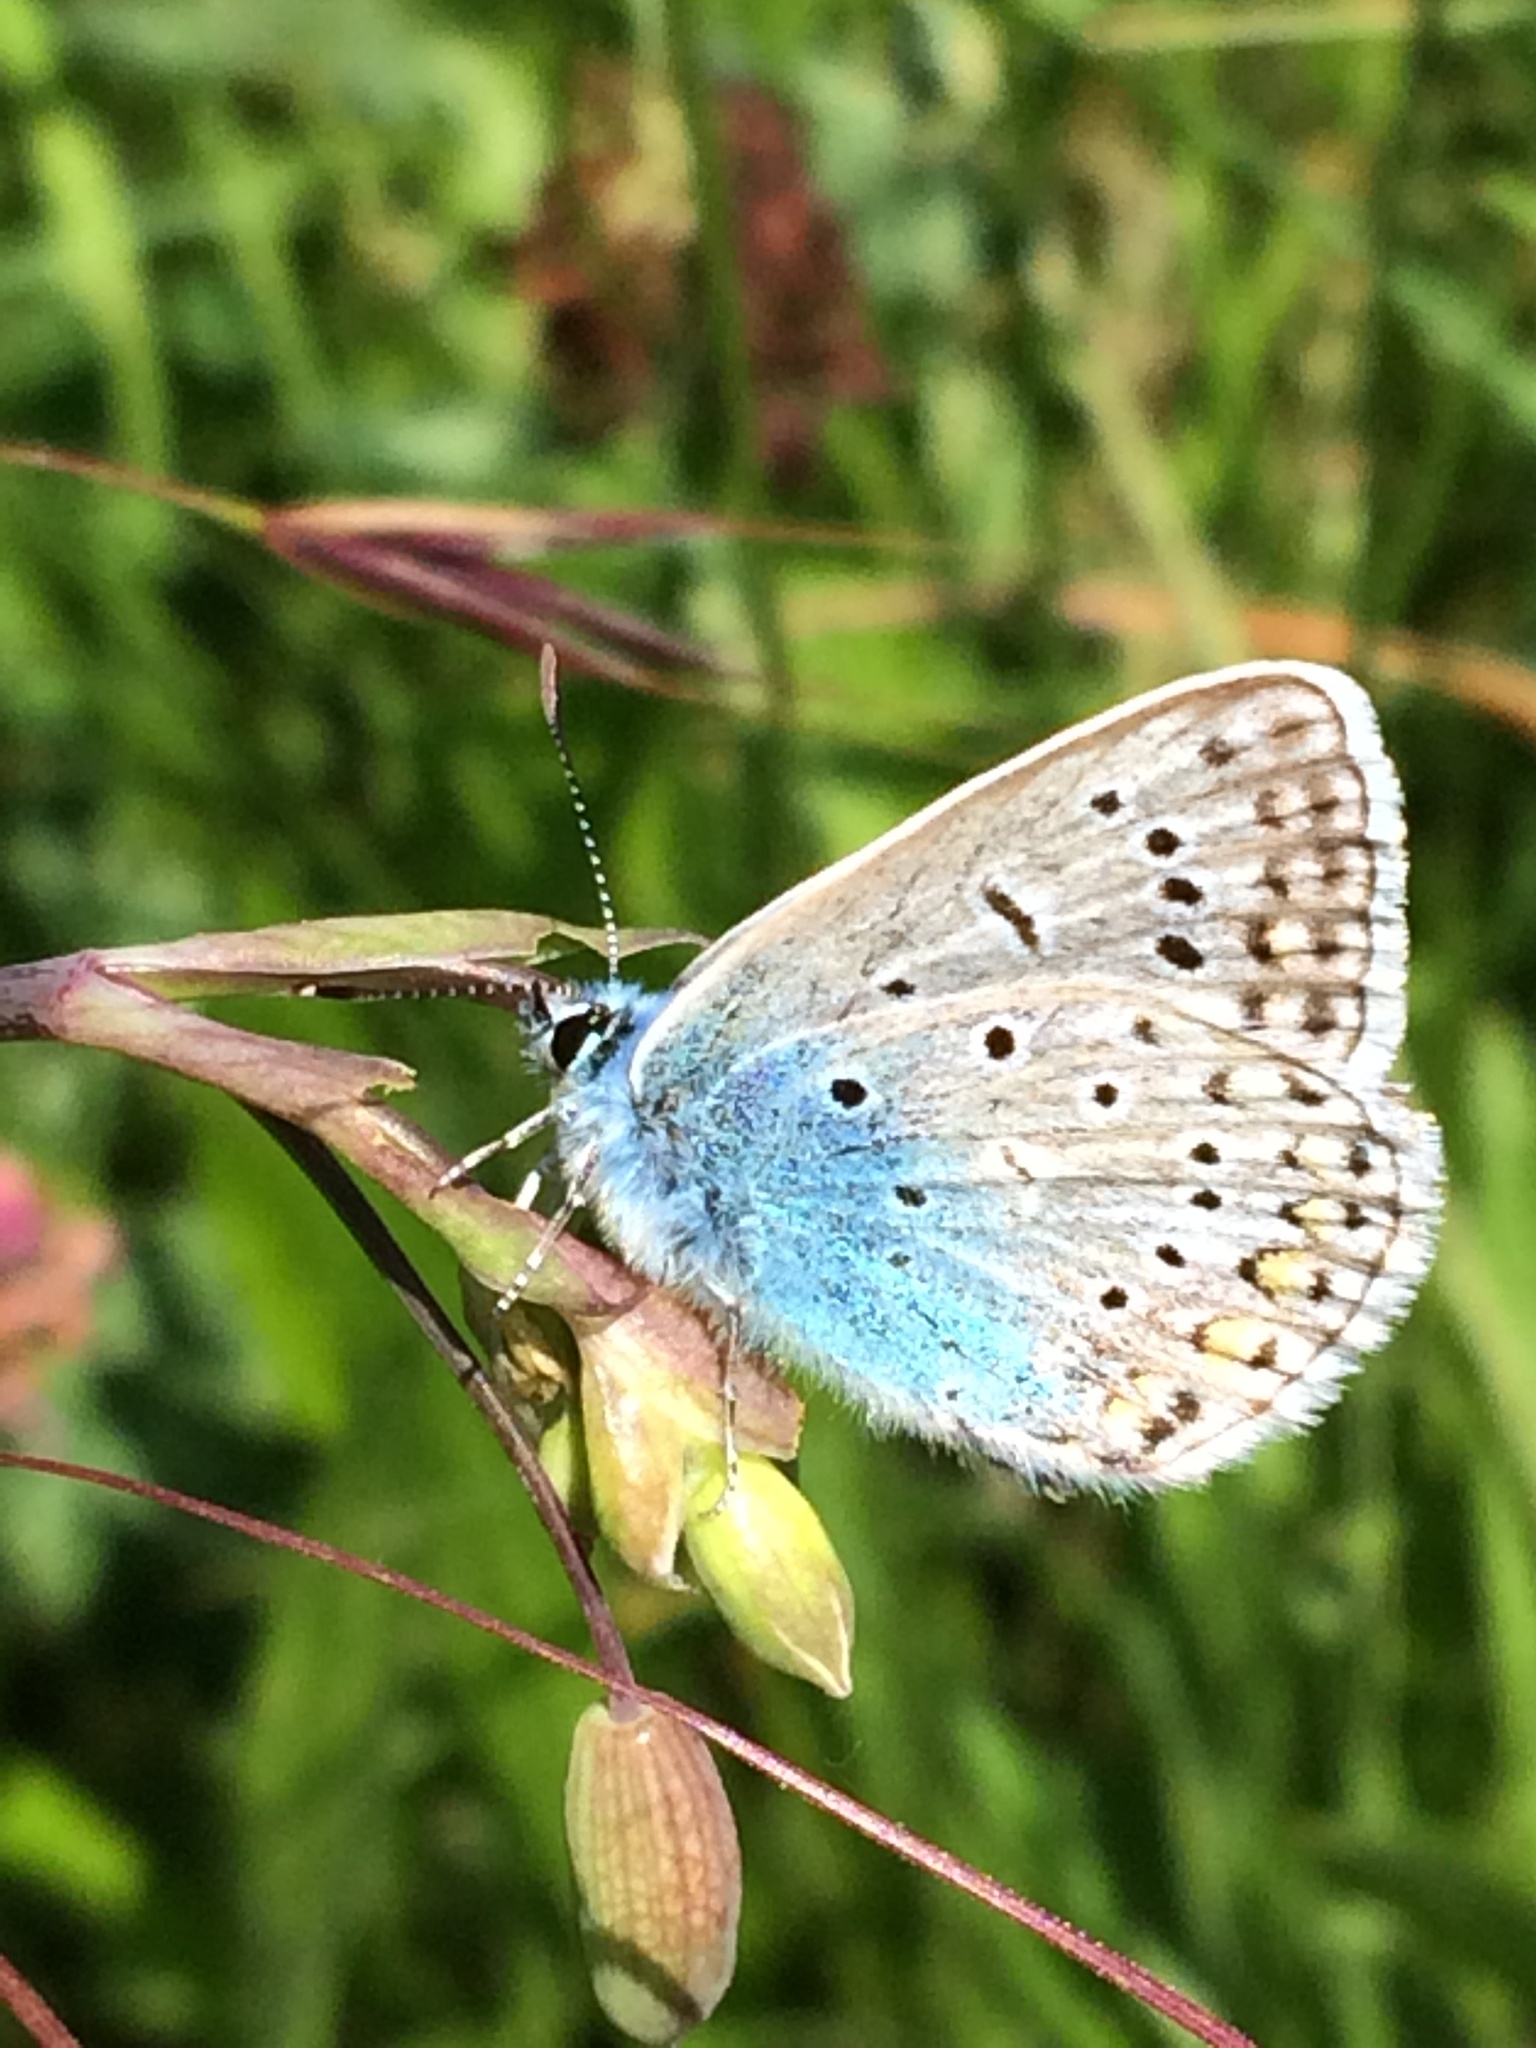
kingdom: Animalia
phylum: Arthropoda
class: Insecta
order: Lepidoptera
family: Lycaenidae
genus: Polyommatus
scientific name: Polyommatus icarus
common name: Common blue
